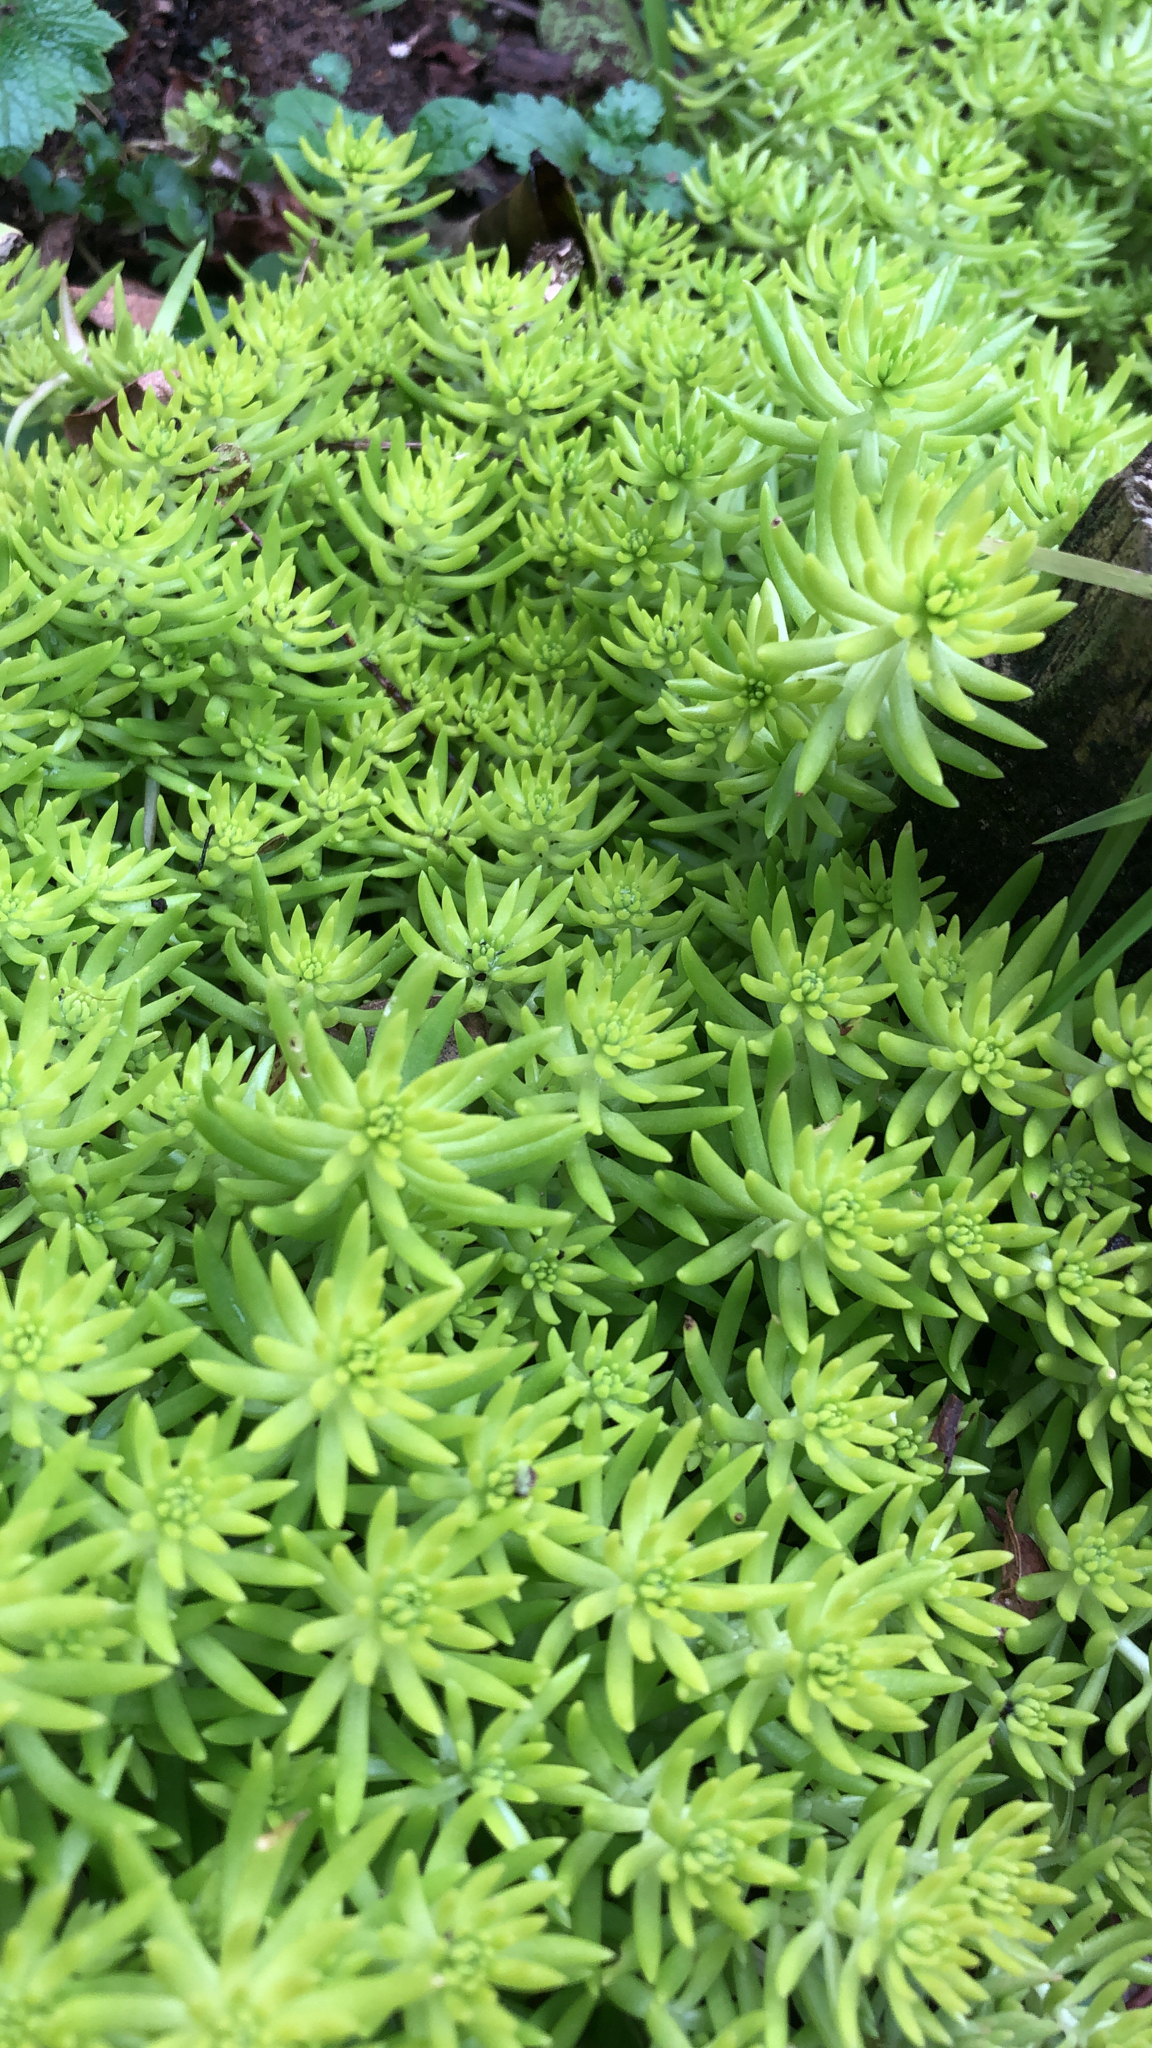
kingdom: Plantae
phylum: Tracheophyta
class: Magnoliopsida
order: Saxifragales
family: Crassulaceae
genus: Sedum
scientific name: Sedum mexicanum
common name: Mexican stonecrop
